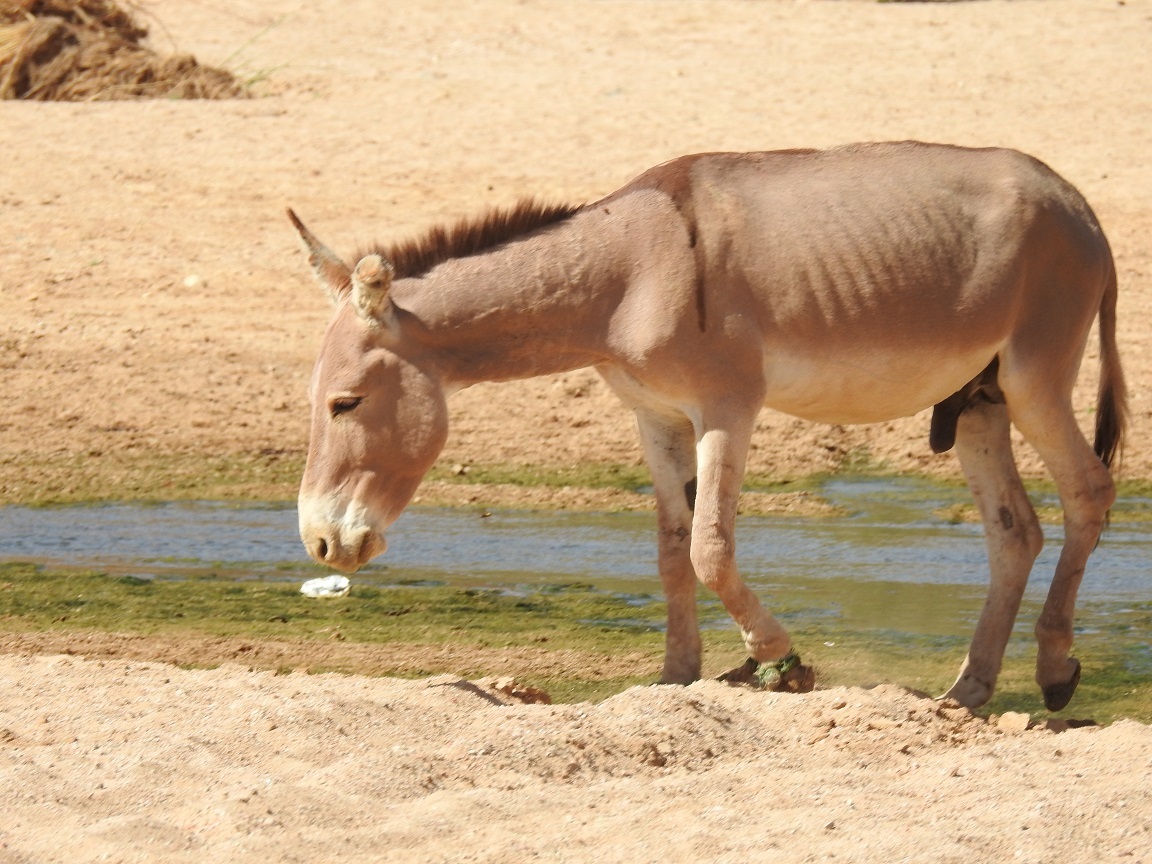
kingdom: Animalia
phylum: Chordata
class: Mammalia
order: Perissodactyla
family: Equidae
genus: Equus
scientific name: Equus asinus
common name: Ass
